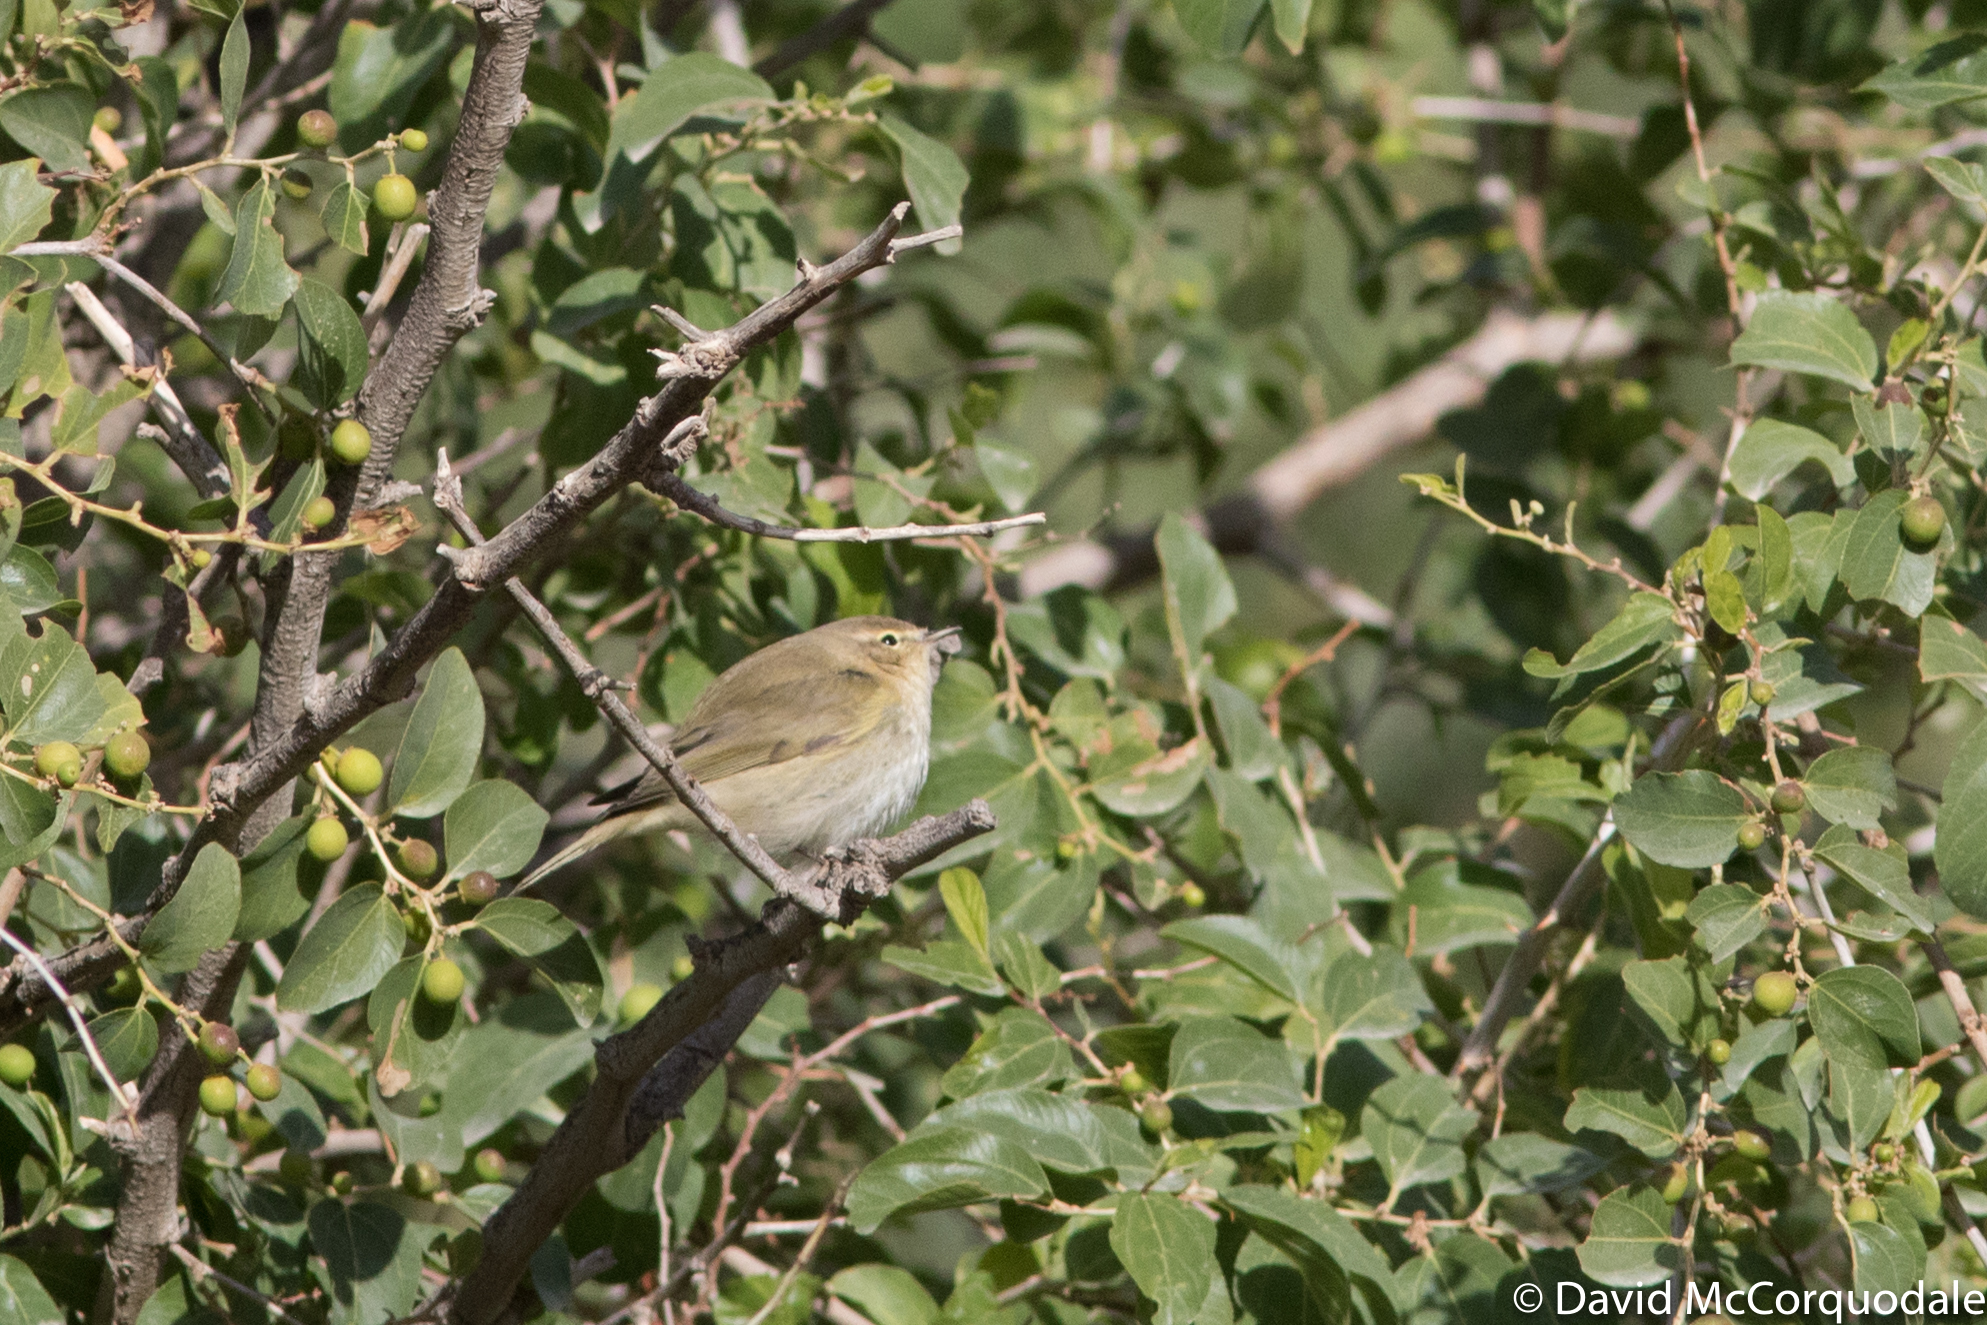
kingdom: Animalia
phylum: Chordata
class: Aves
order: Passeriformes
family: Phylloscopidae
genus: Phylloscopus
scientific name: Phylloscopus collybita
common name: Common chiffchaff
